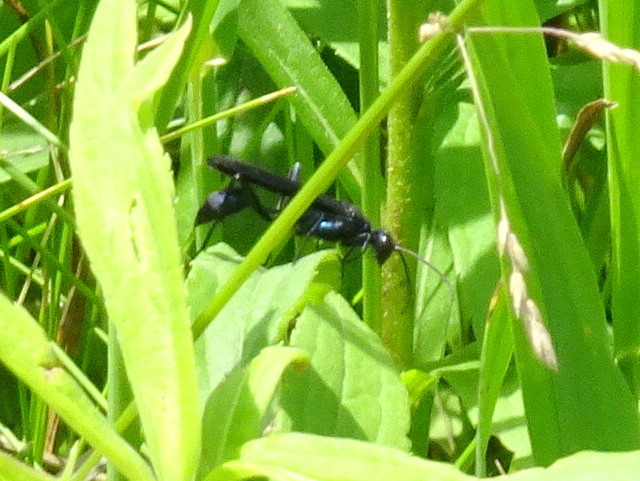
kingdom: Animalia
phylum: Arthropoda
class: Insecta
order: Hymenoptera
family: Sphecidae
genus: Chalybion
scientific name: Chalybion californicum
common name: Mud dauber
